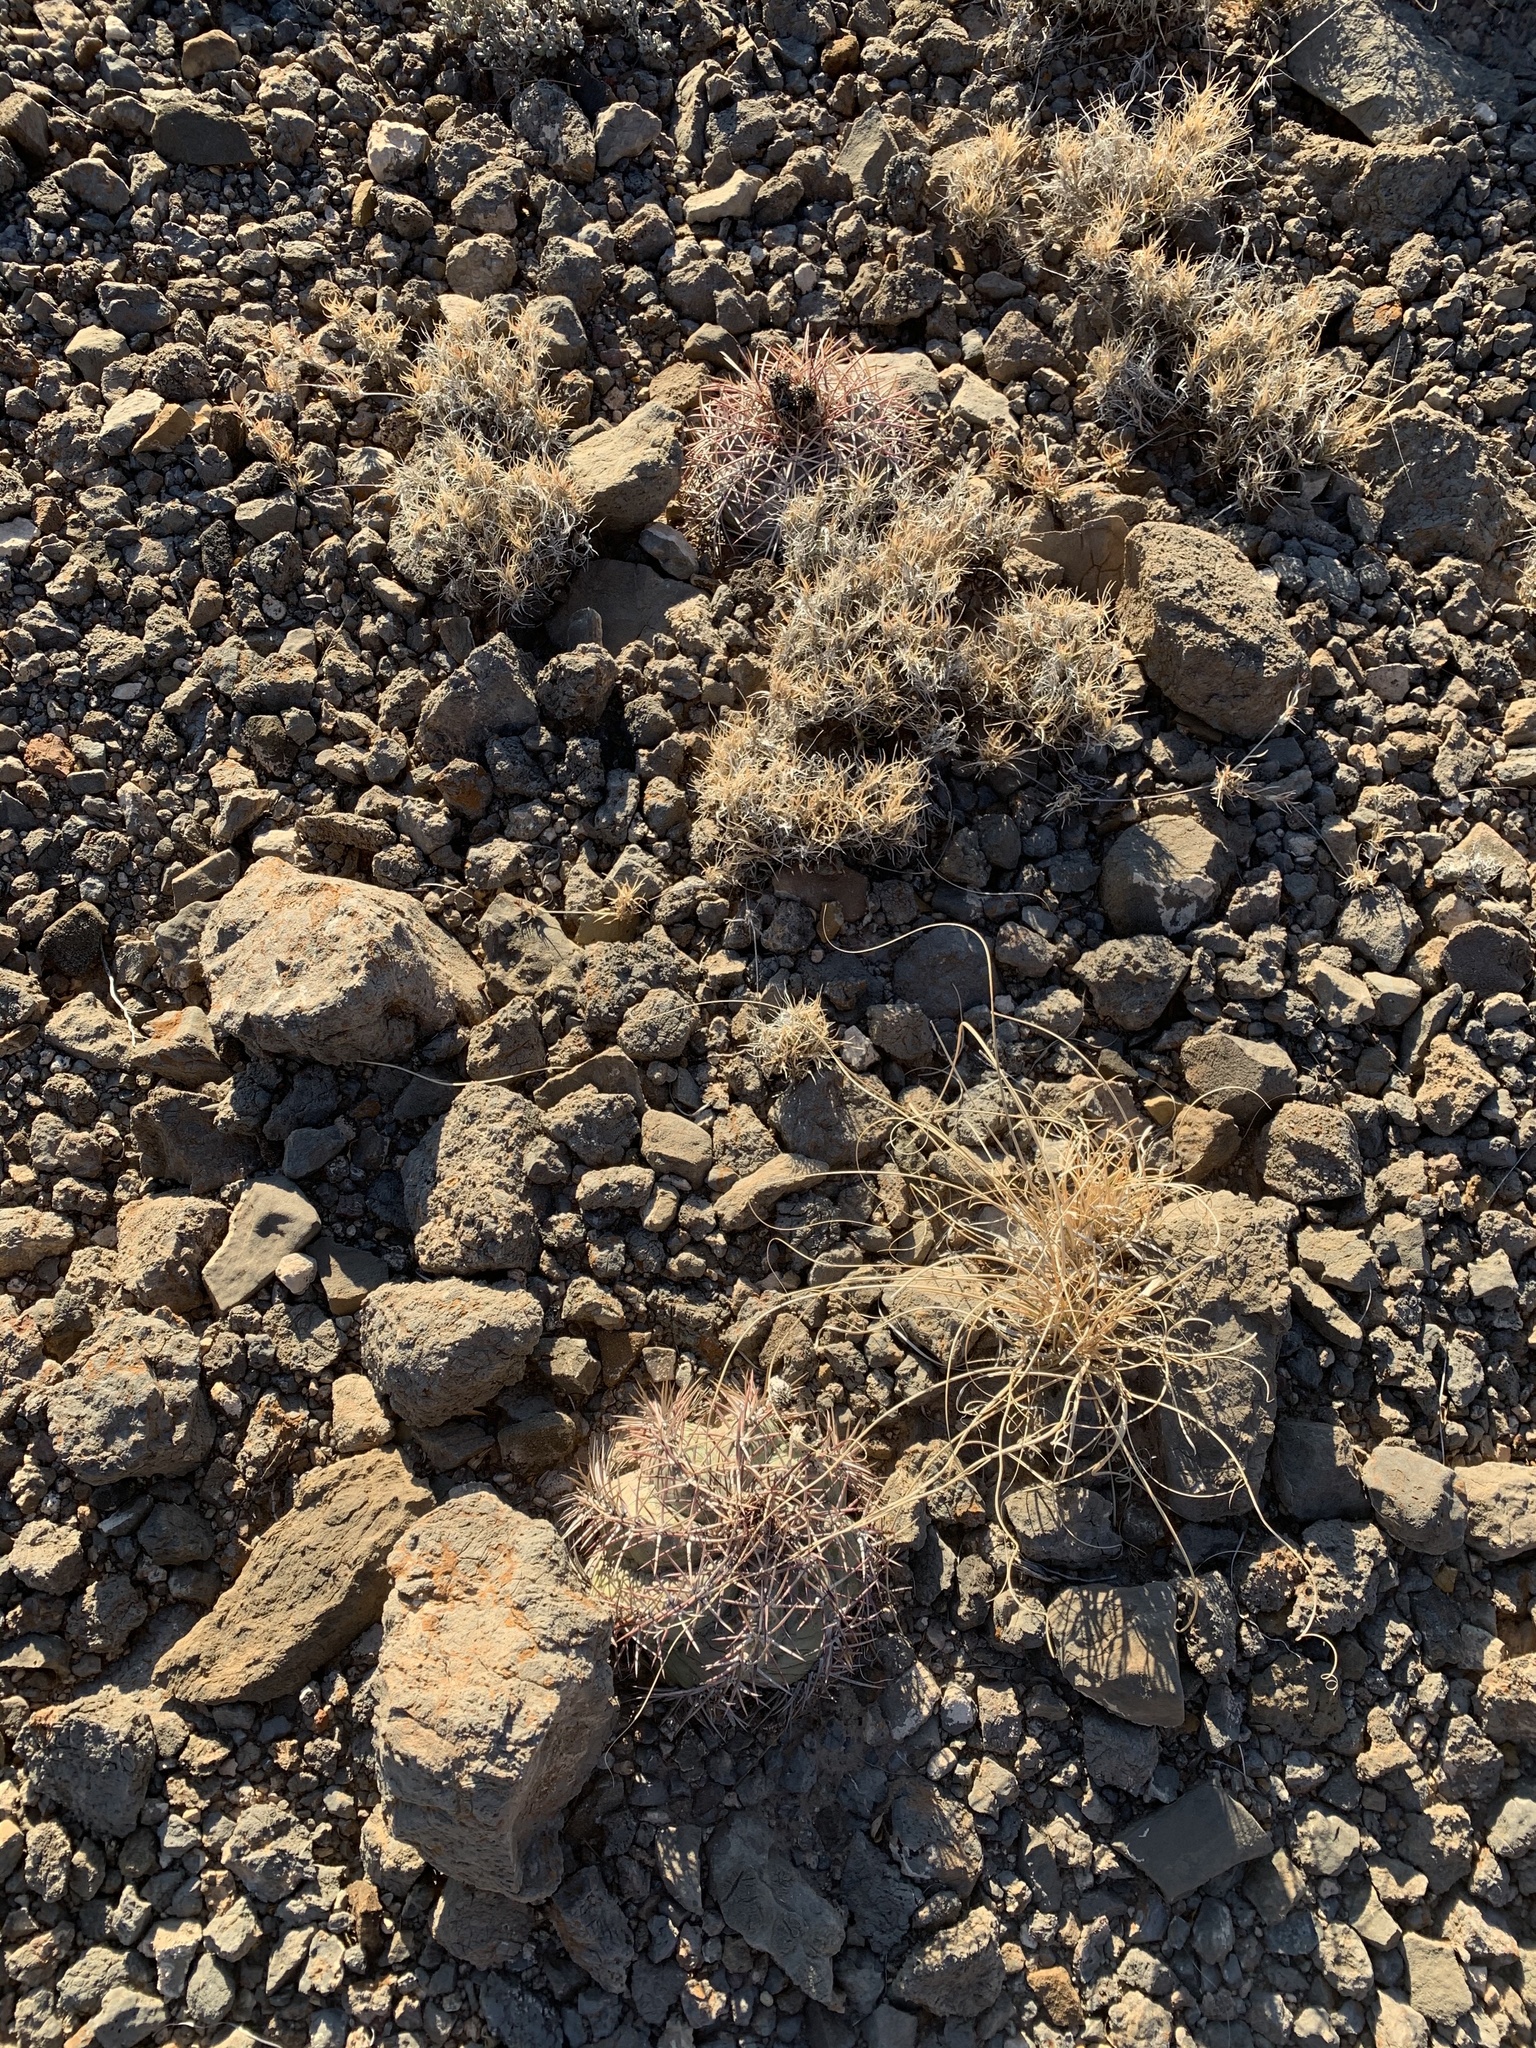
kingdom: Plantae
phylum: Tracheophyta
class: Magnoliopsida
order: Caryophyllales
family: Cactaceae
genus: Echinocactus
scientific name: Echinocactus horizonthalonius
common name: Devilshead
